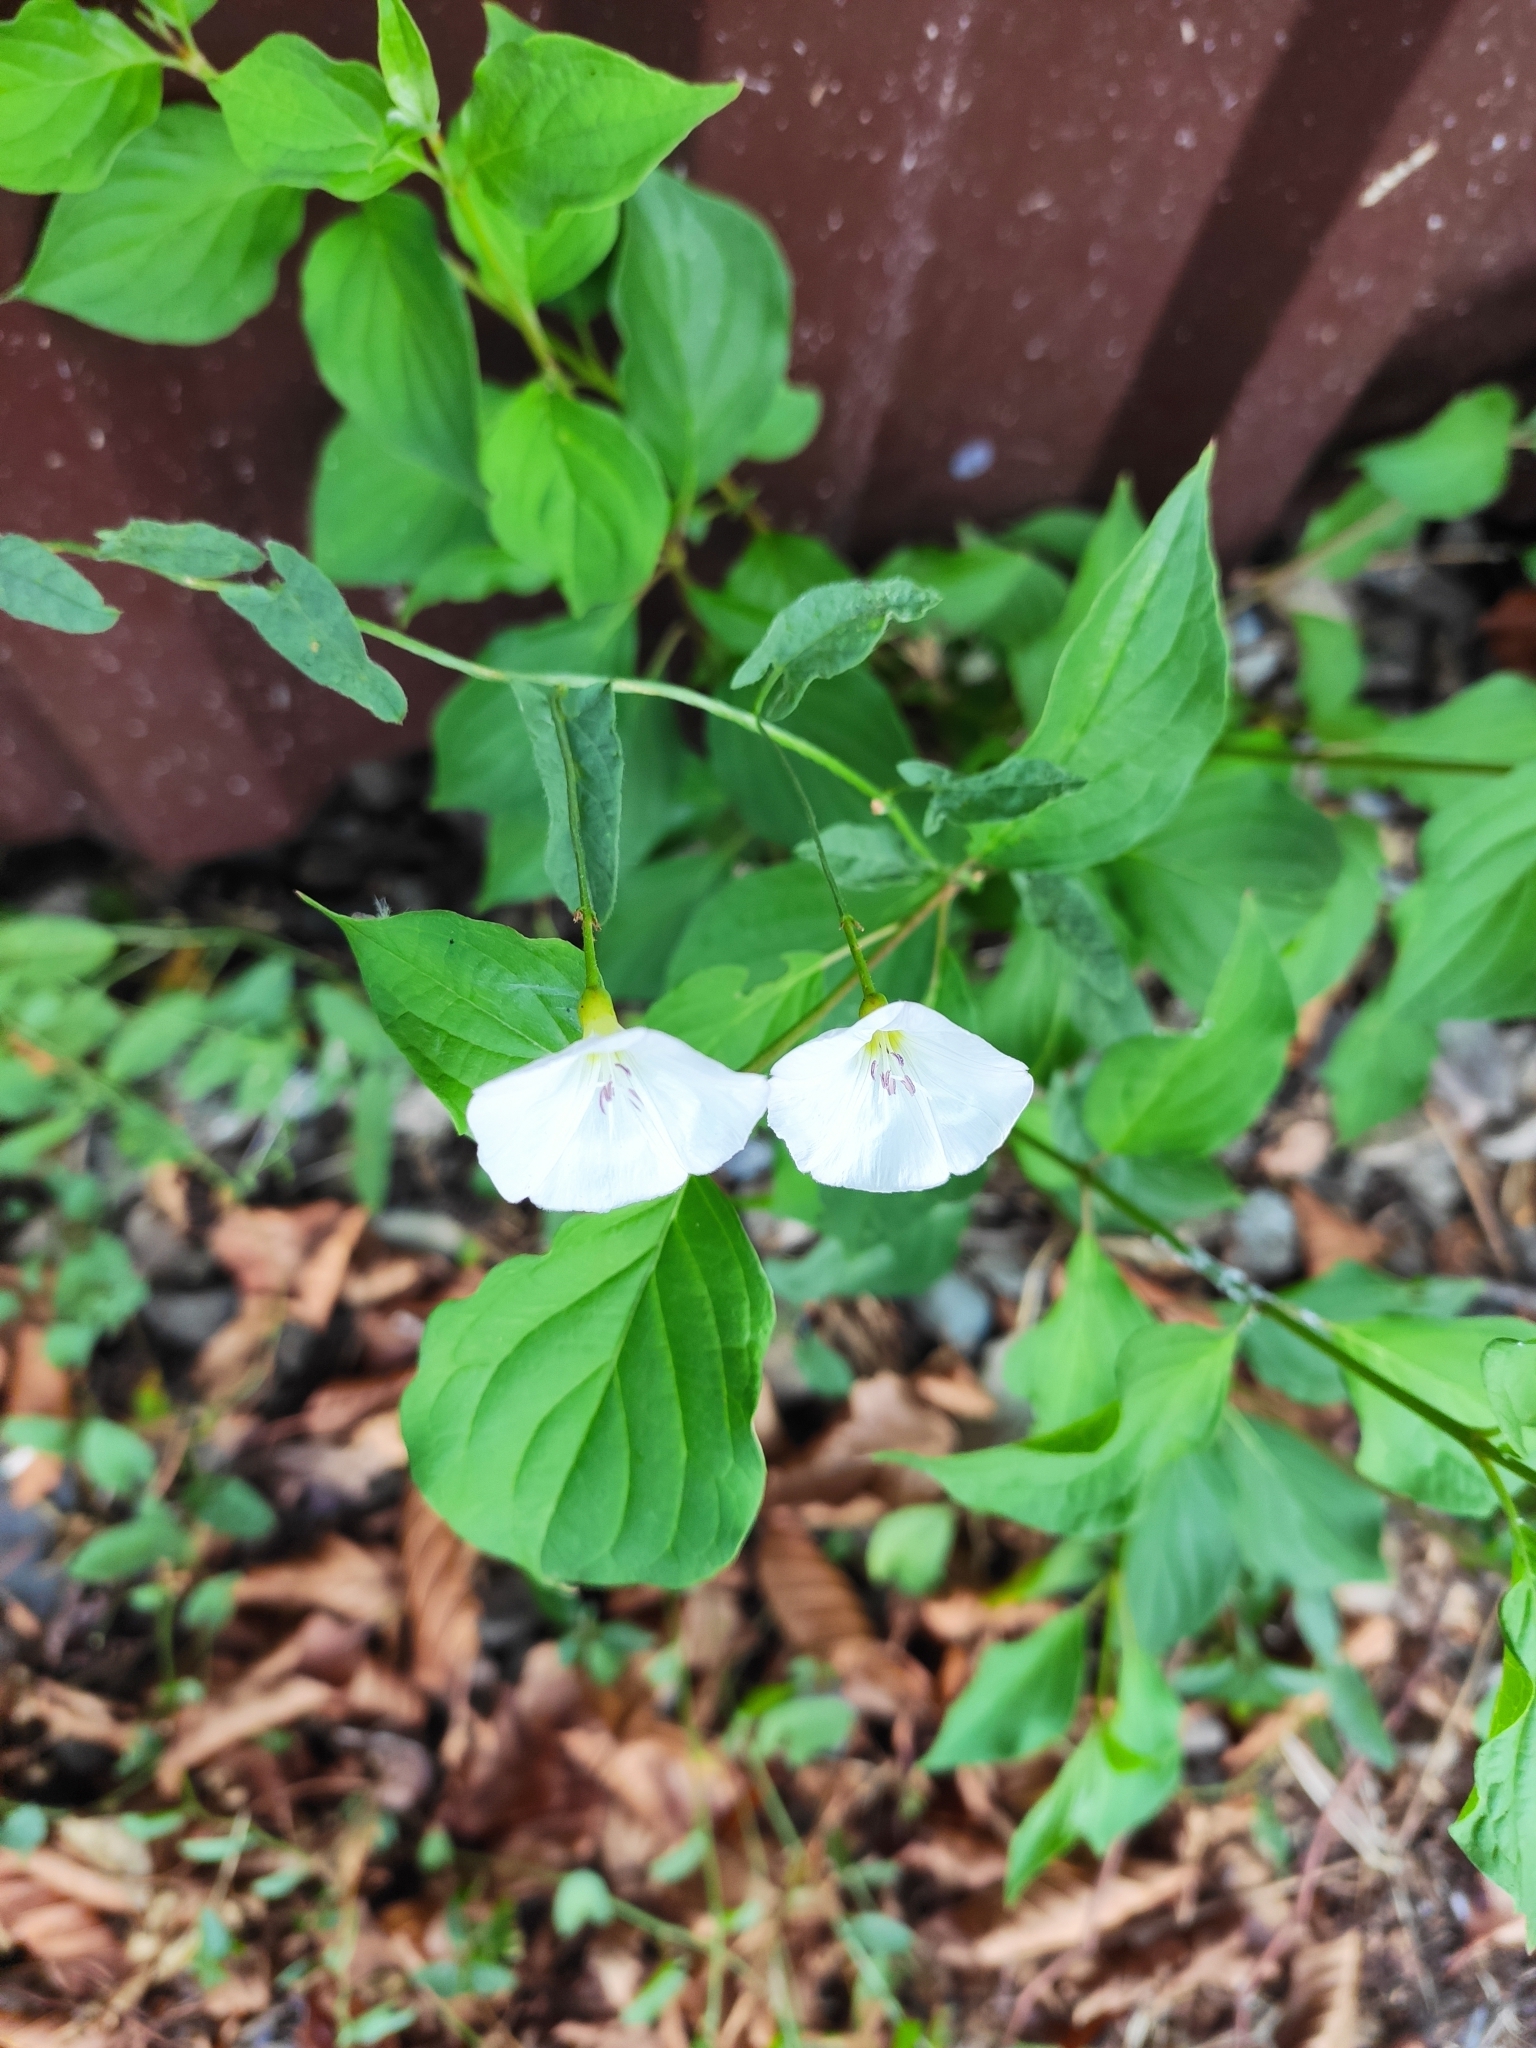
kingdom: Plantae
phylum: Tracheophyta
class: Magnoliopsida
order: Solanales
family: Convolvulaceae
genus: Convolvulus
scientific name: Convolvulus arvensis
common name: Field bindweed
